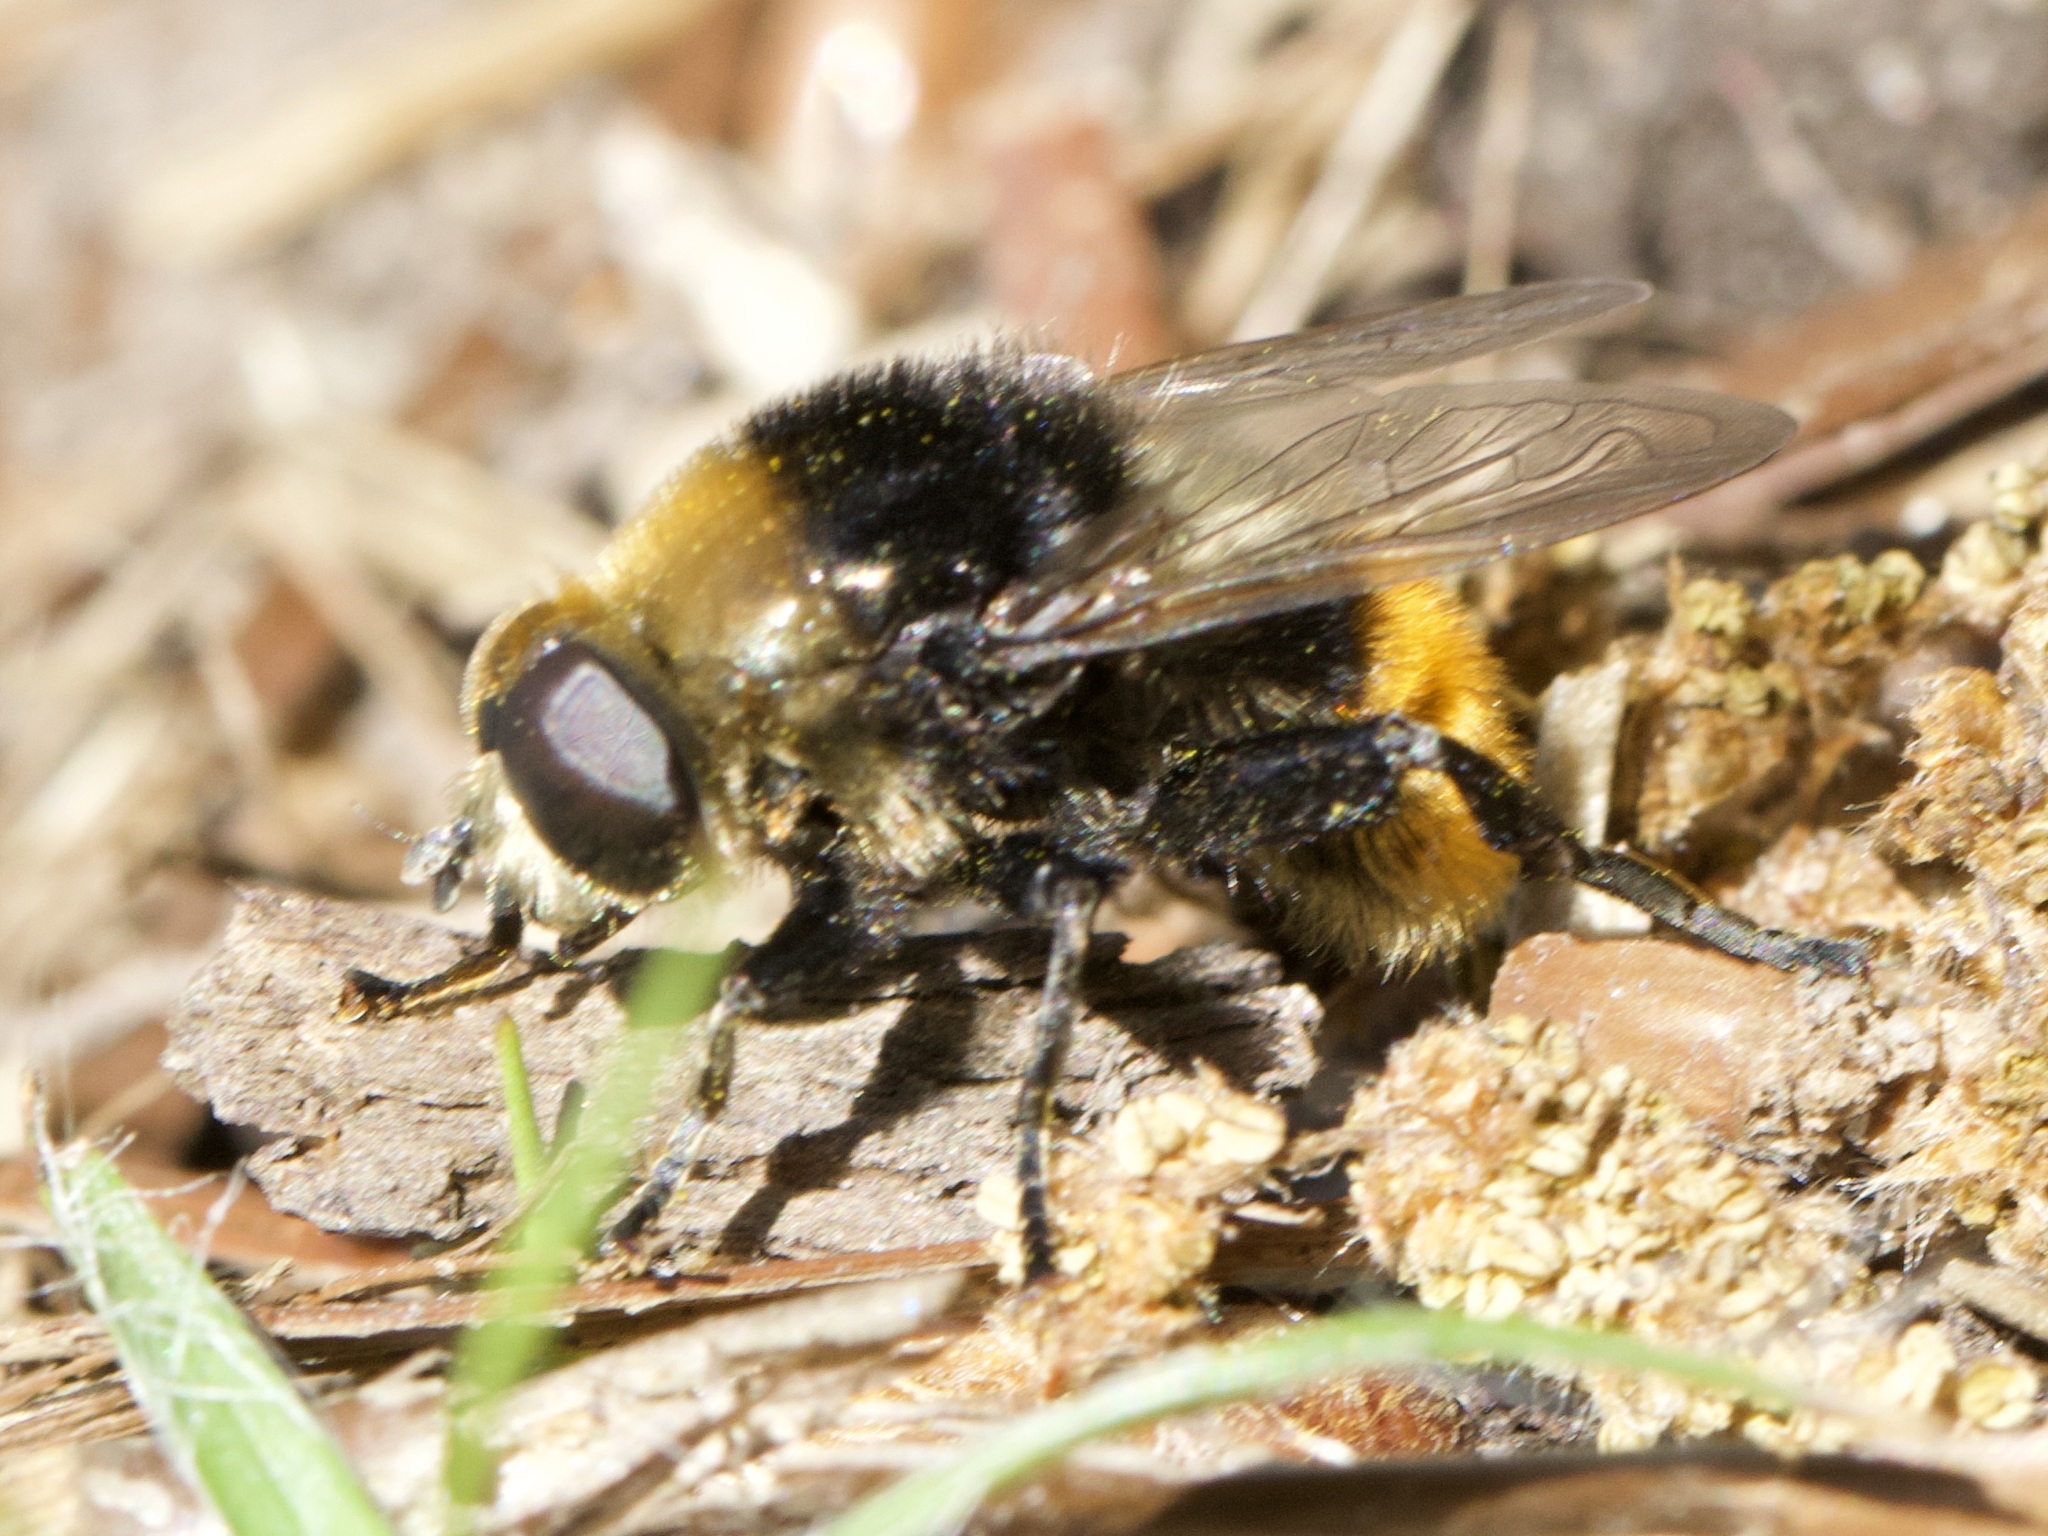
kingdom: Animalia
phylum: Arthropoda
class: Insecta
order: Diptera
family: Syrphidae
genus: Merodon
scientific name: Merodon equestris
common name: Greater bulb-fly
